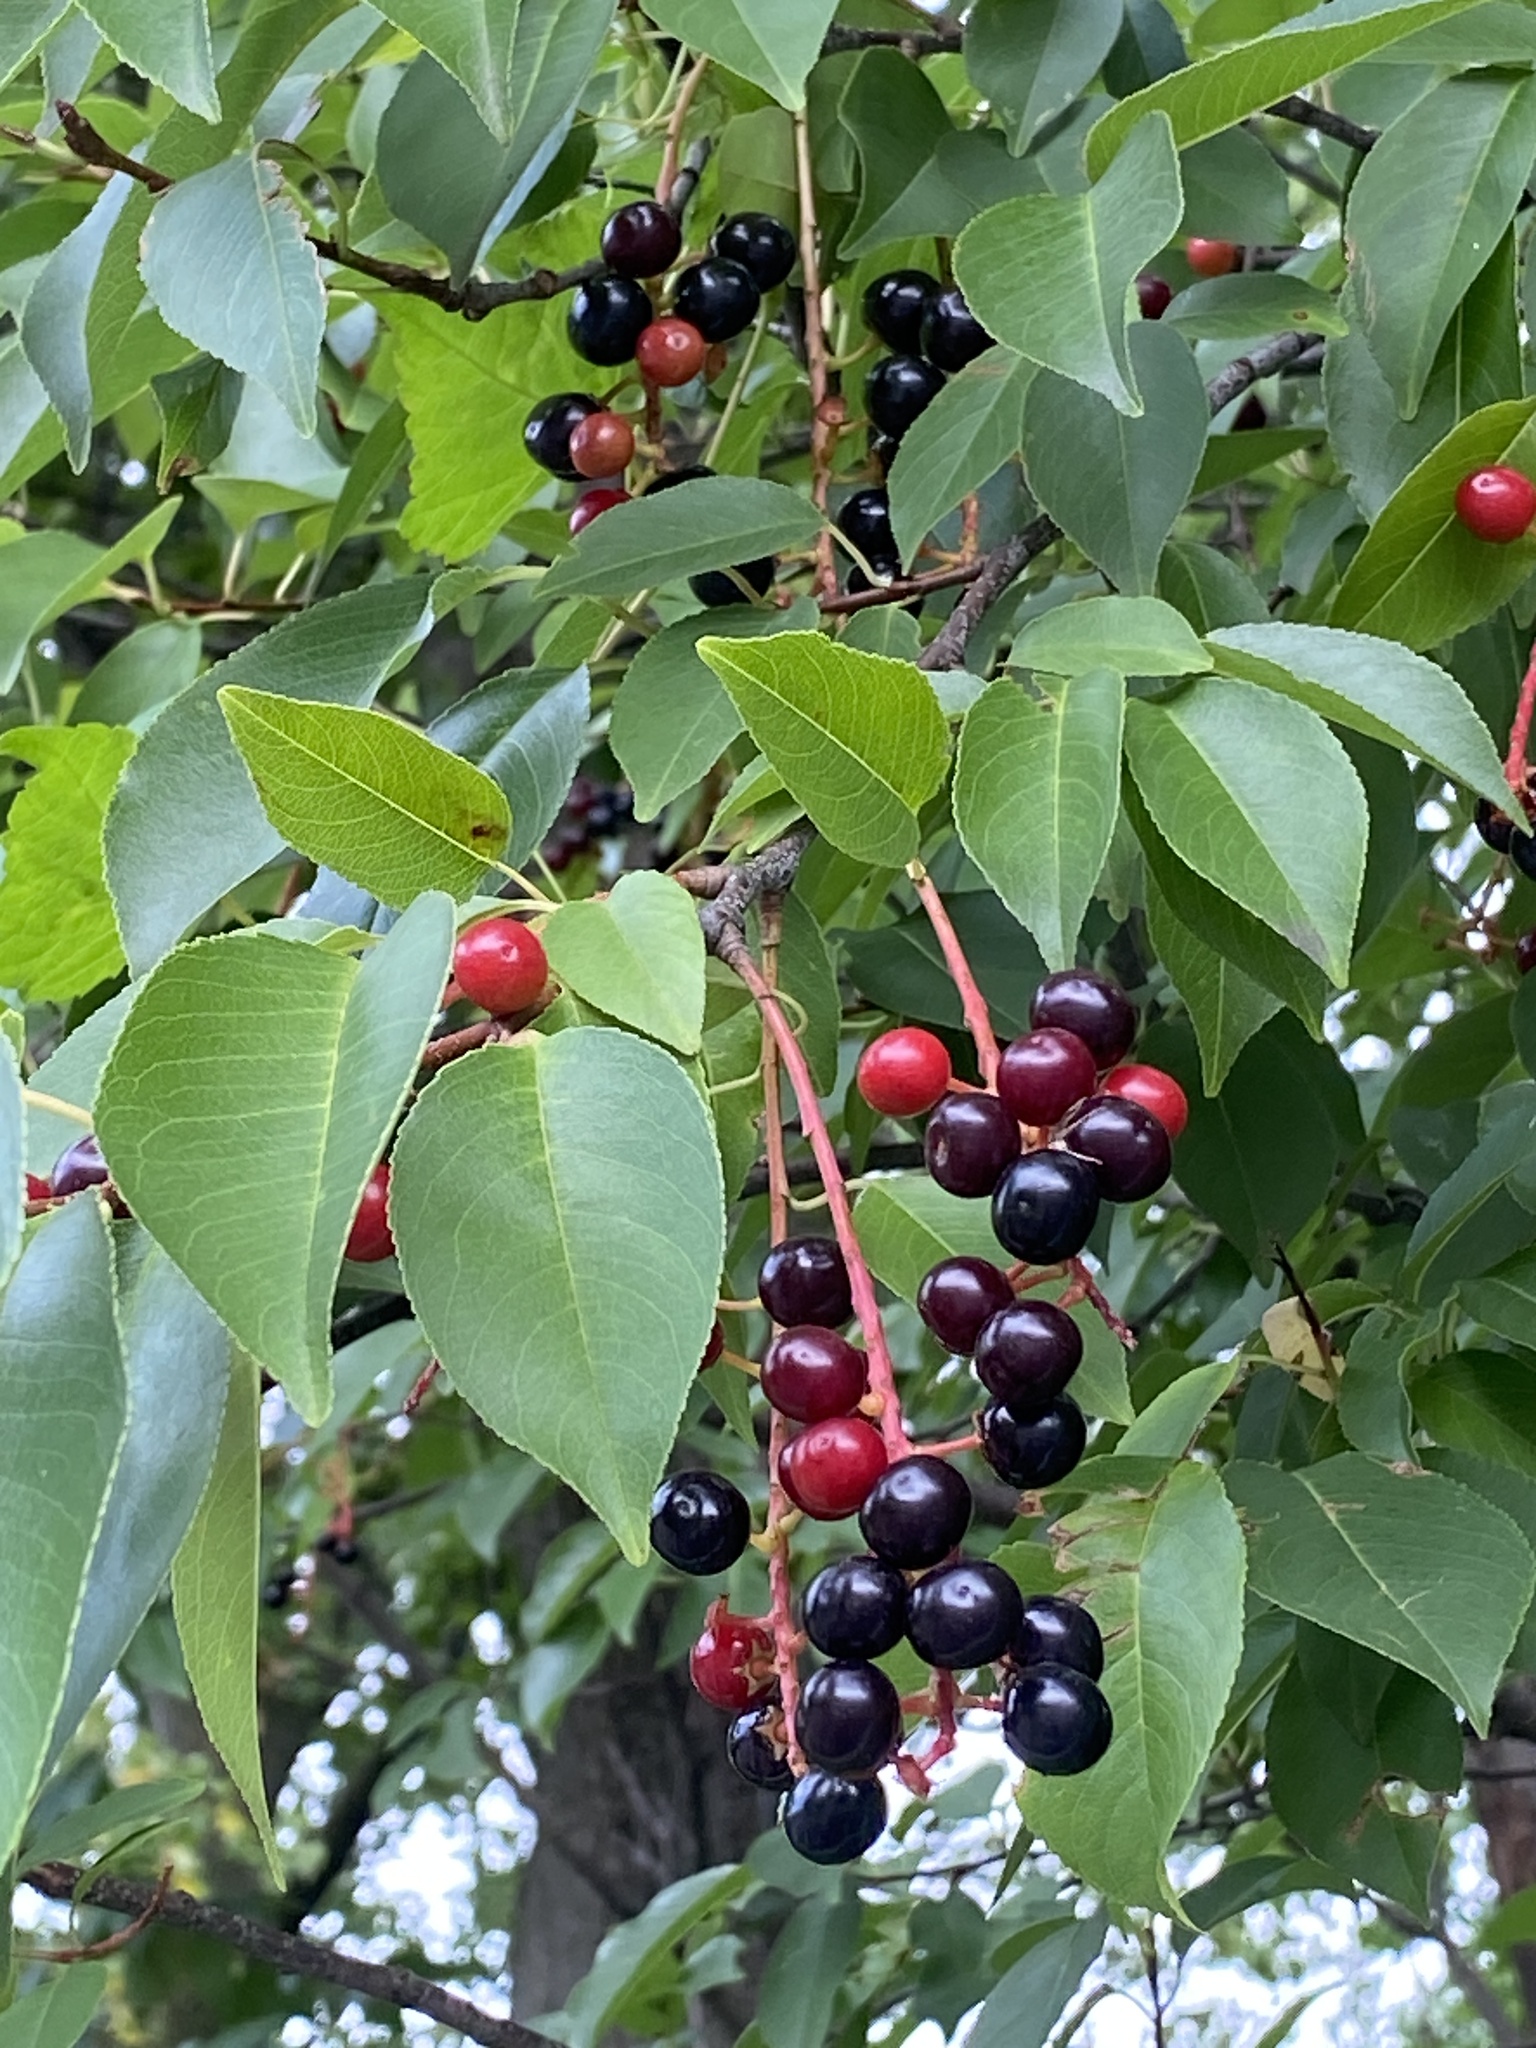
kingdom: Plantae
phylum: Tracheophyta
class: Magnoliopsida
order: Rosales
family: Rosaceae
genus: Prunus
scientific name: Prunus serotina
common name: Black cherry
